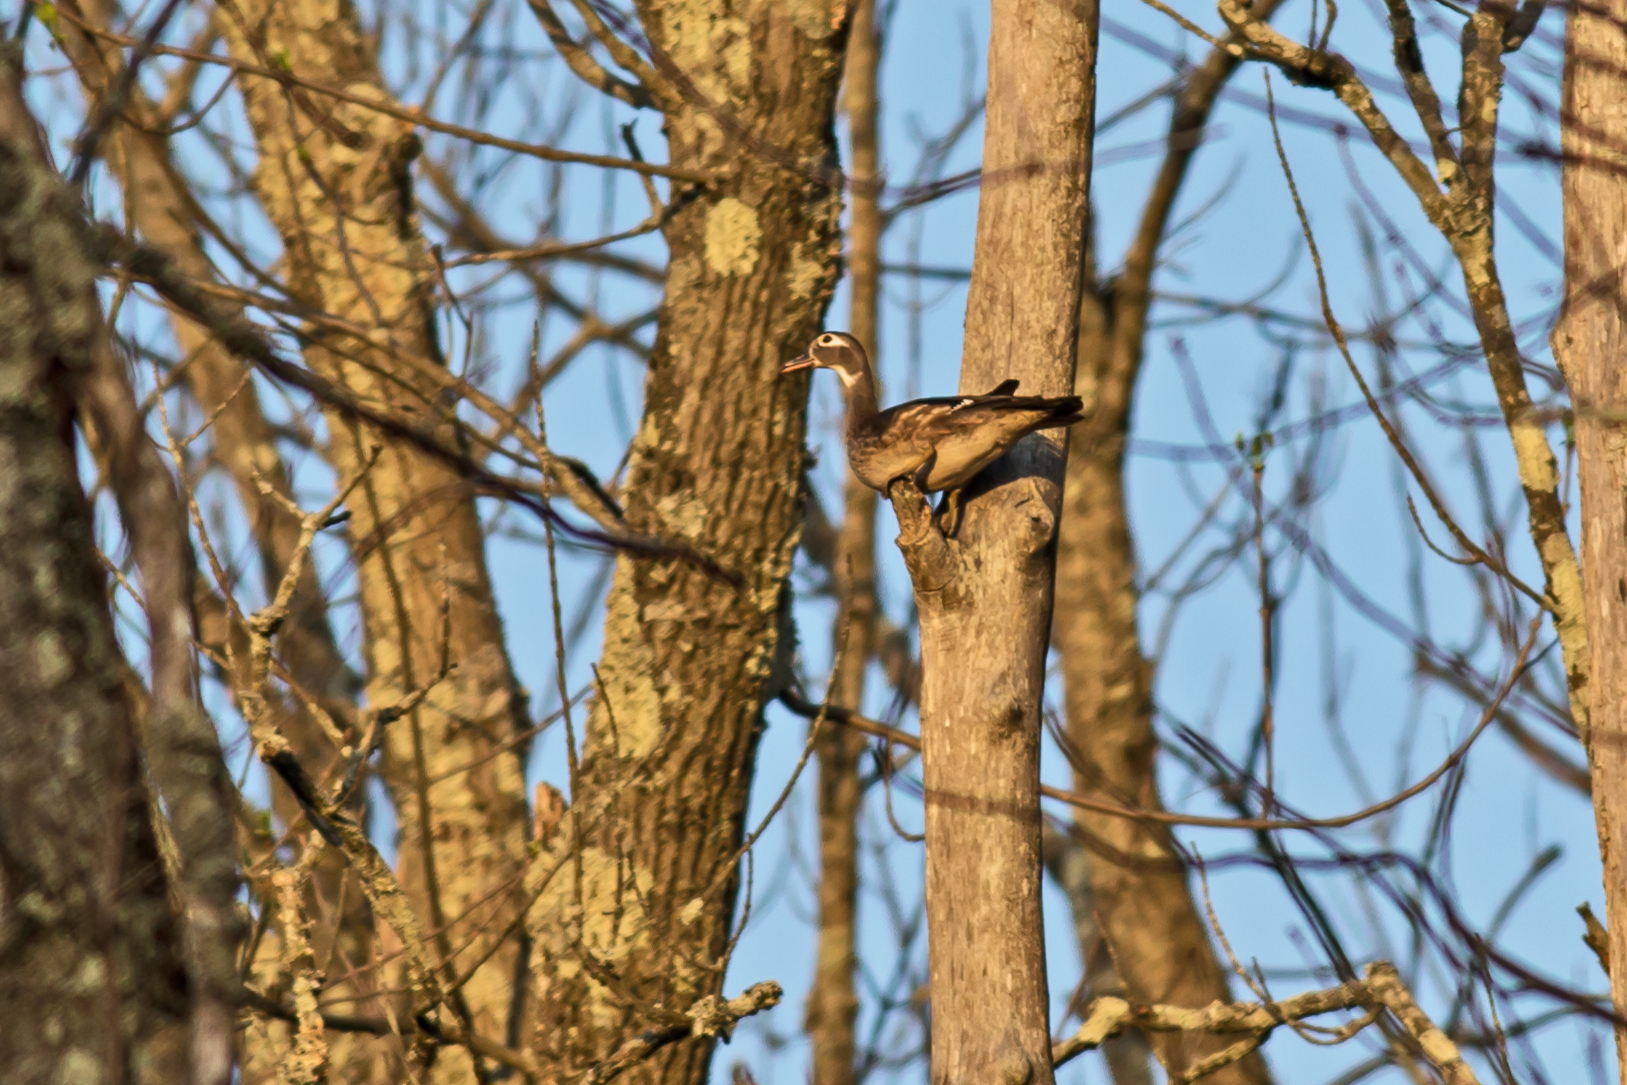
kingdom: Animalia
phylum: Chordata
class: Aves
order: Anseriformes
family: Anatidae
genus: Aix
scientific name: Aix sponsa
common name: Wood duck
